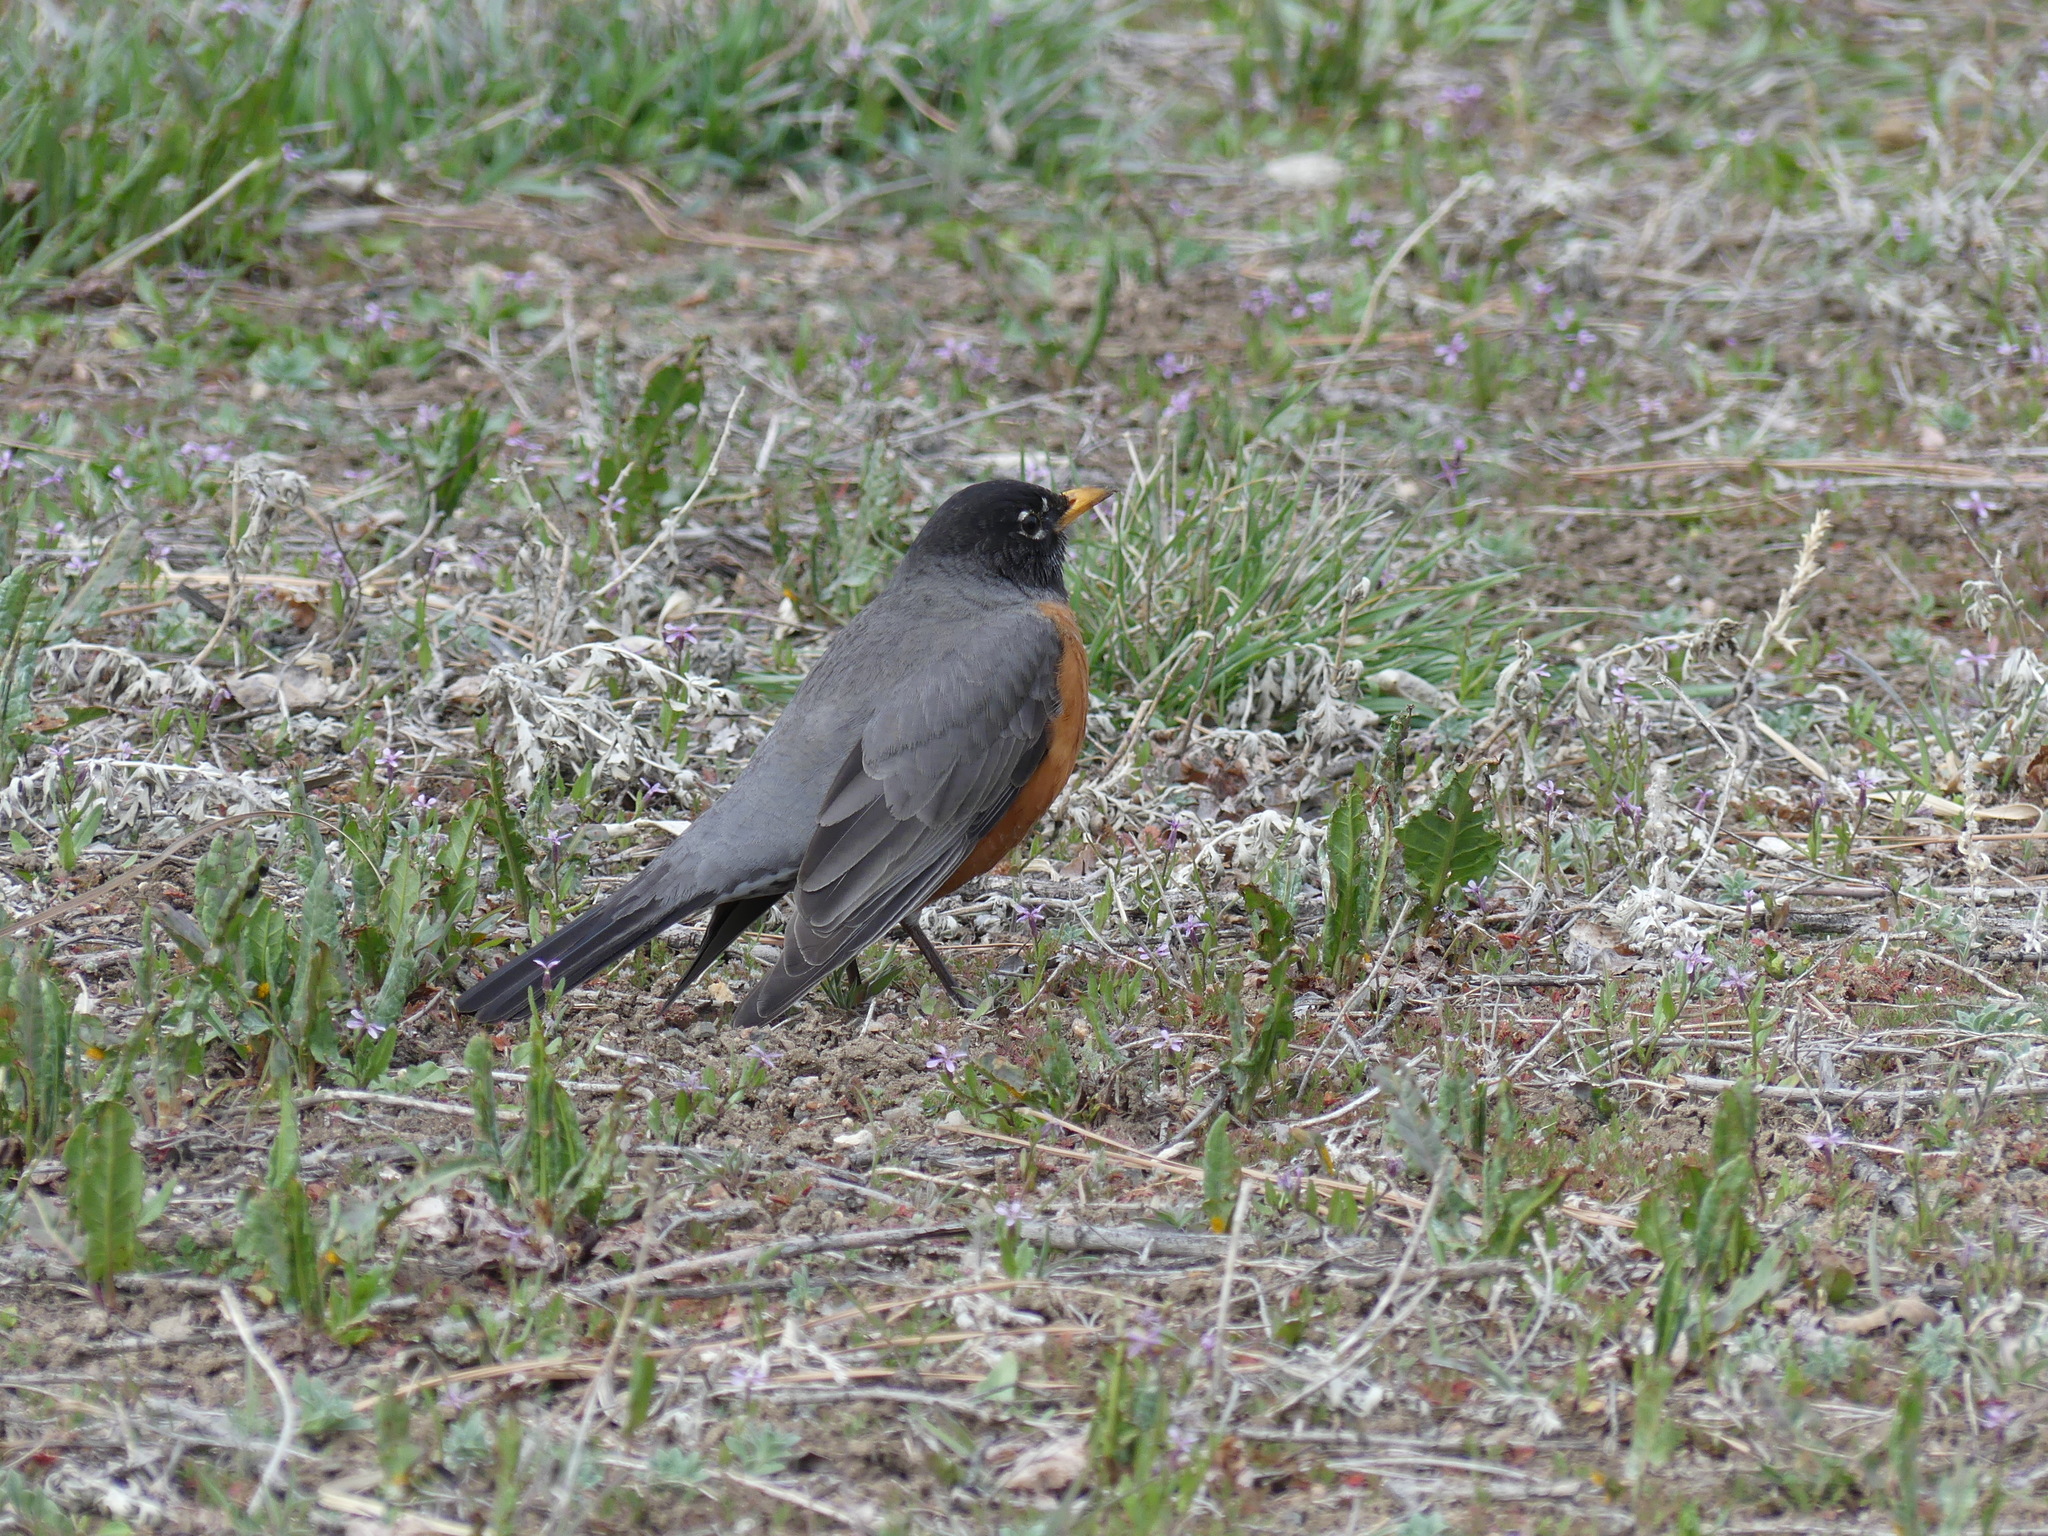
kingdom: Animalia
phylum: Chordata
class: Aves
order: Passeriformes
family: Turdidae
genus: Turdus
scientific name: Turdus migratorius
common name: American robin
